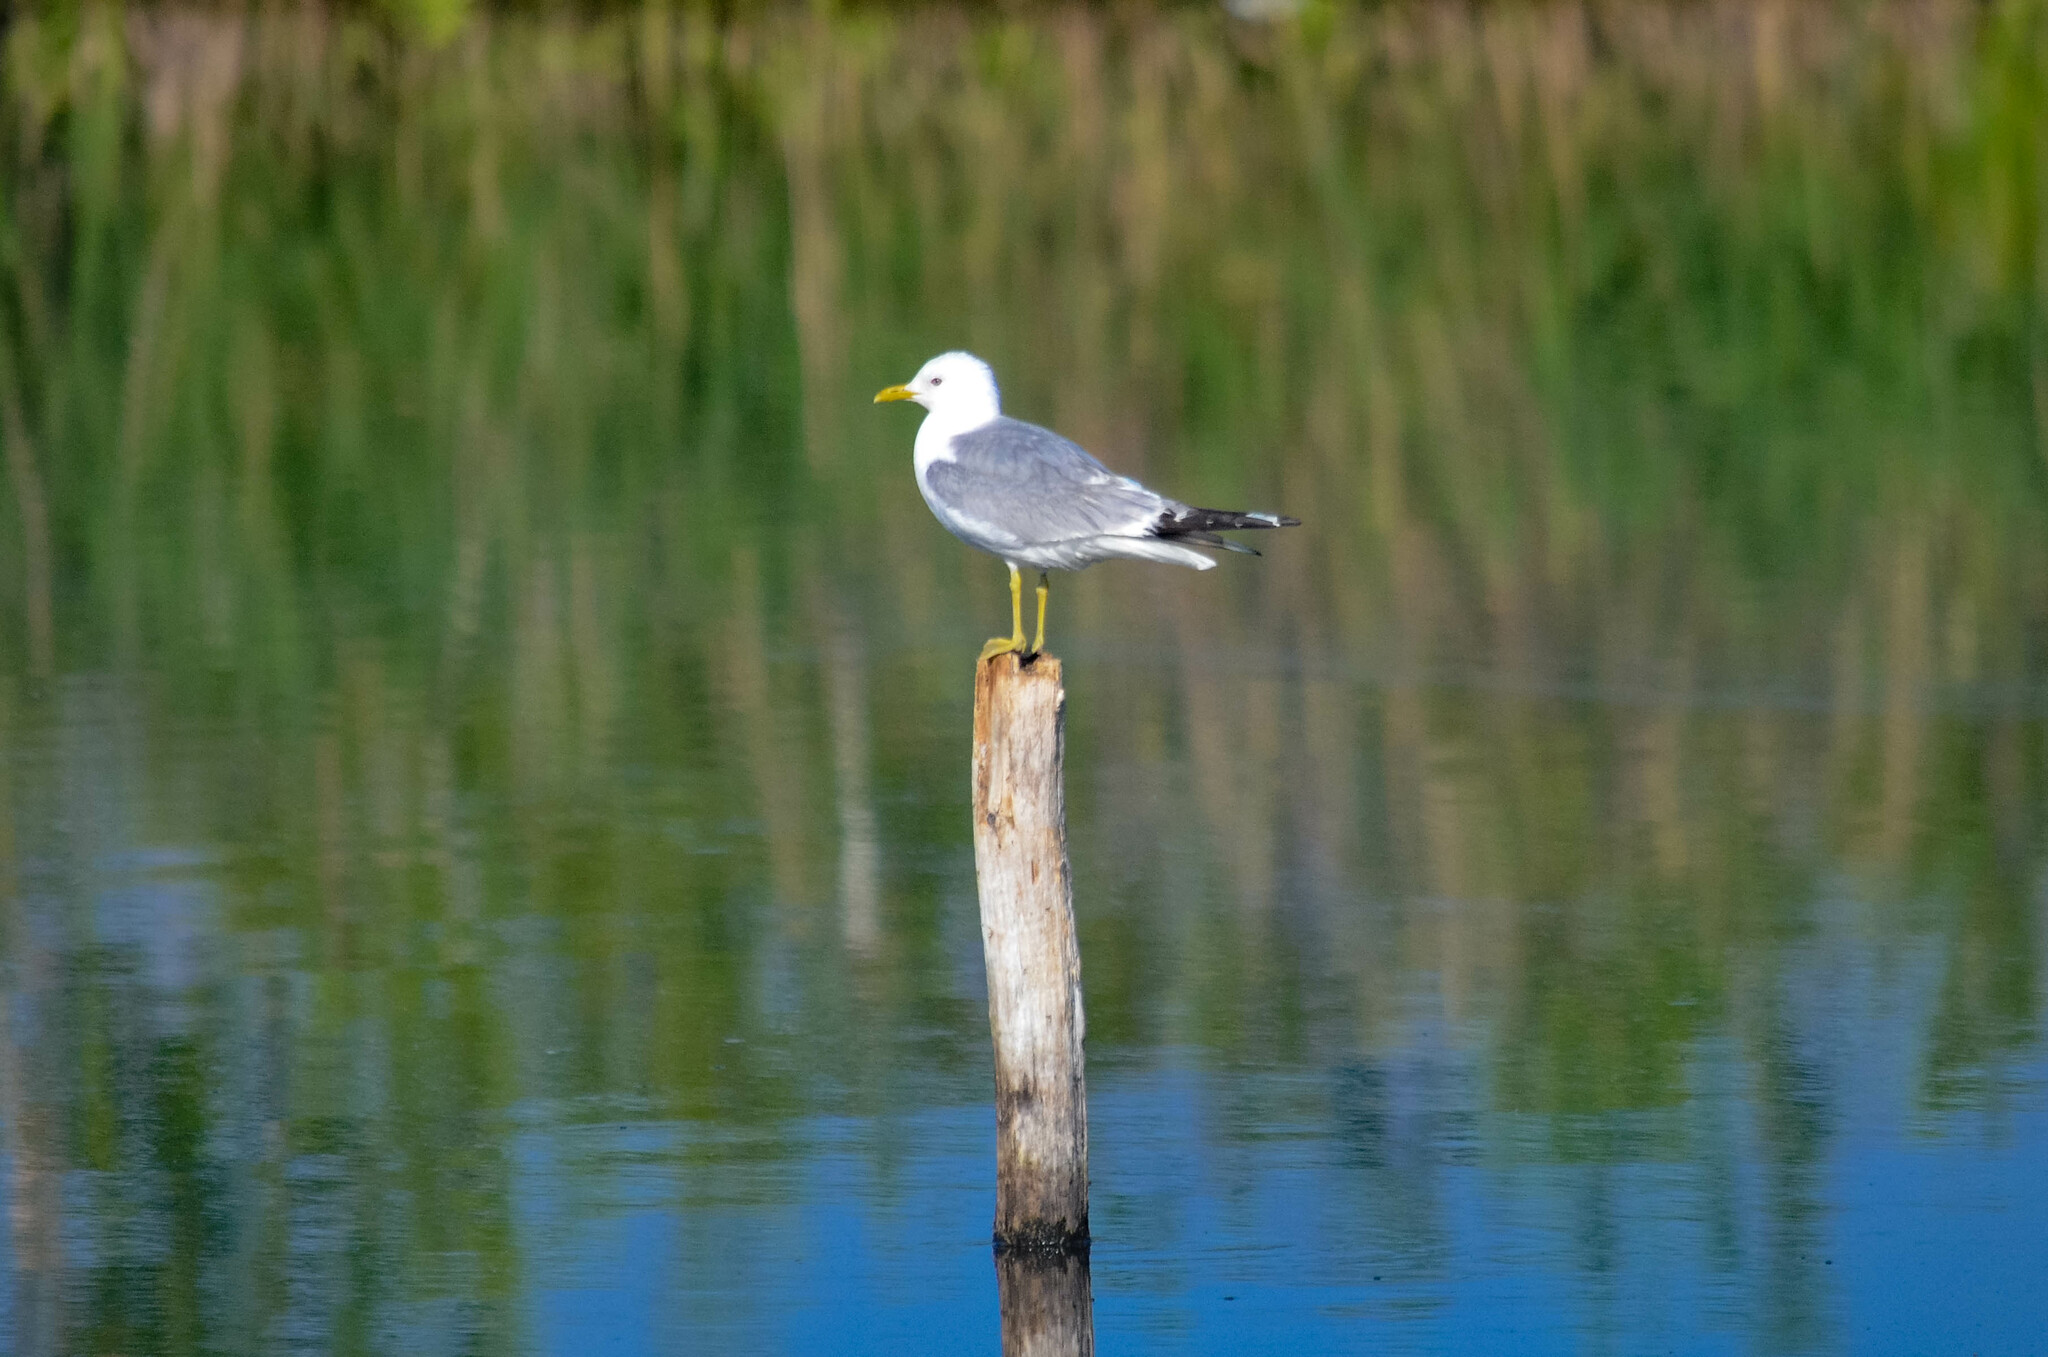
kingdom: Animalia
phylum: Chordata
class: Aves
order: Charadriiformes
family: Laridae
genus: Larus
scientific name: Larus canus
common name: Mew gull
